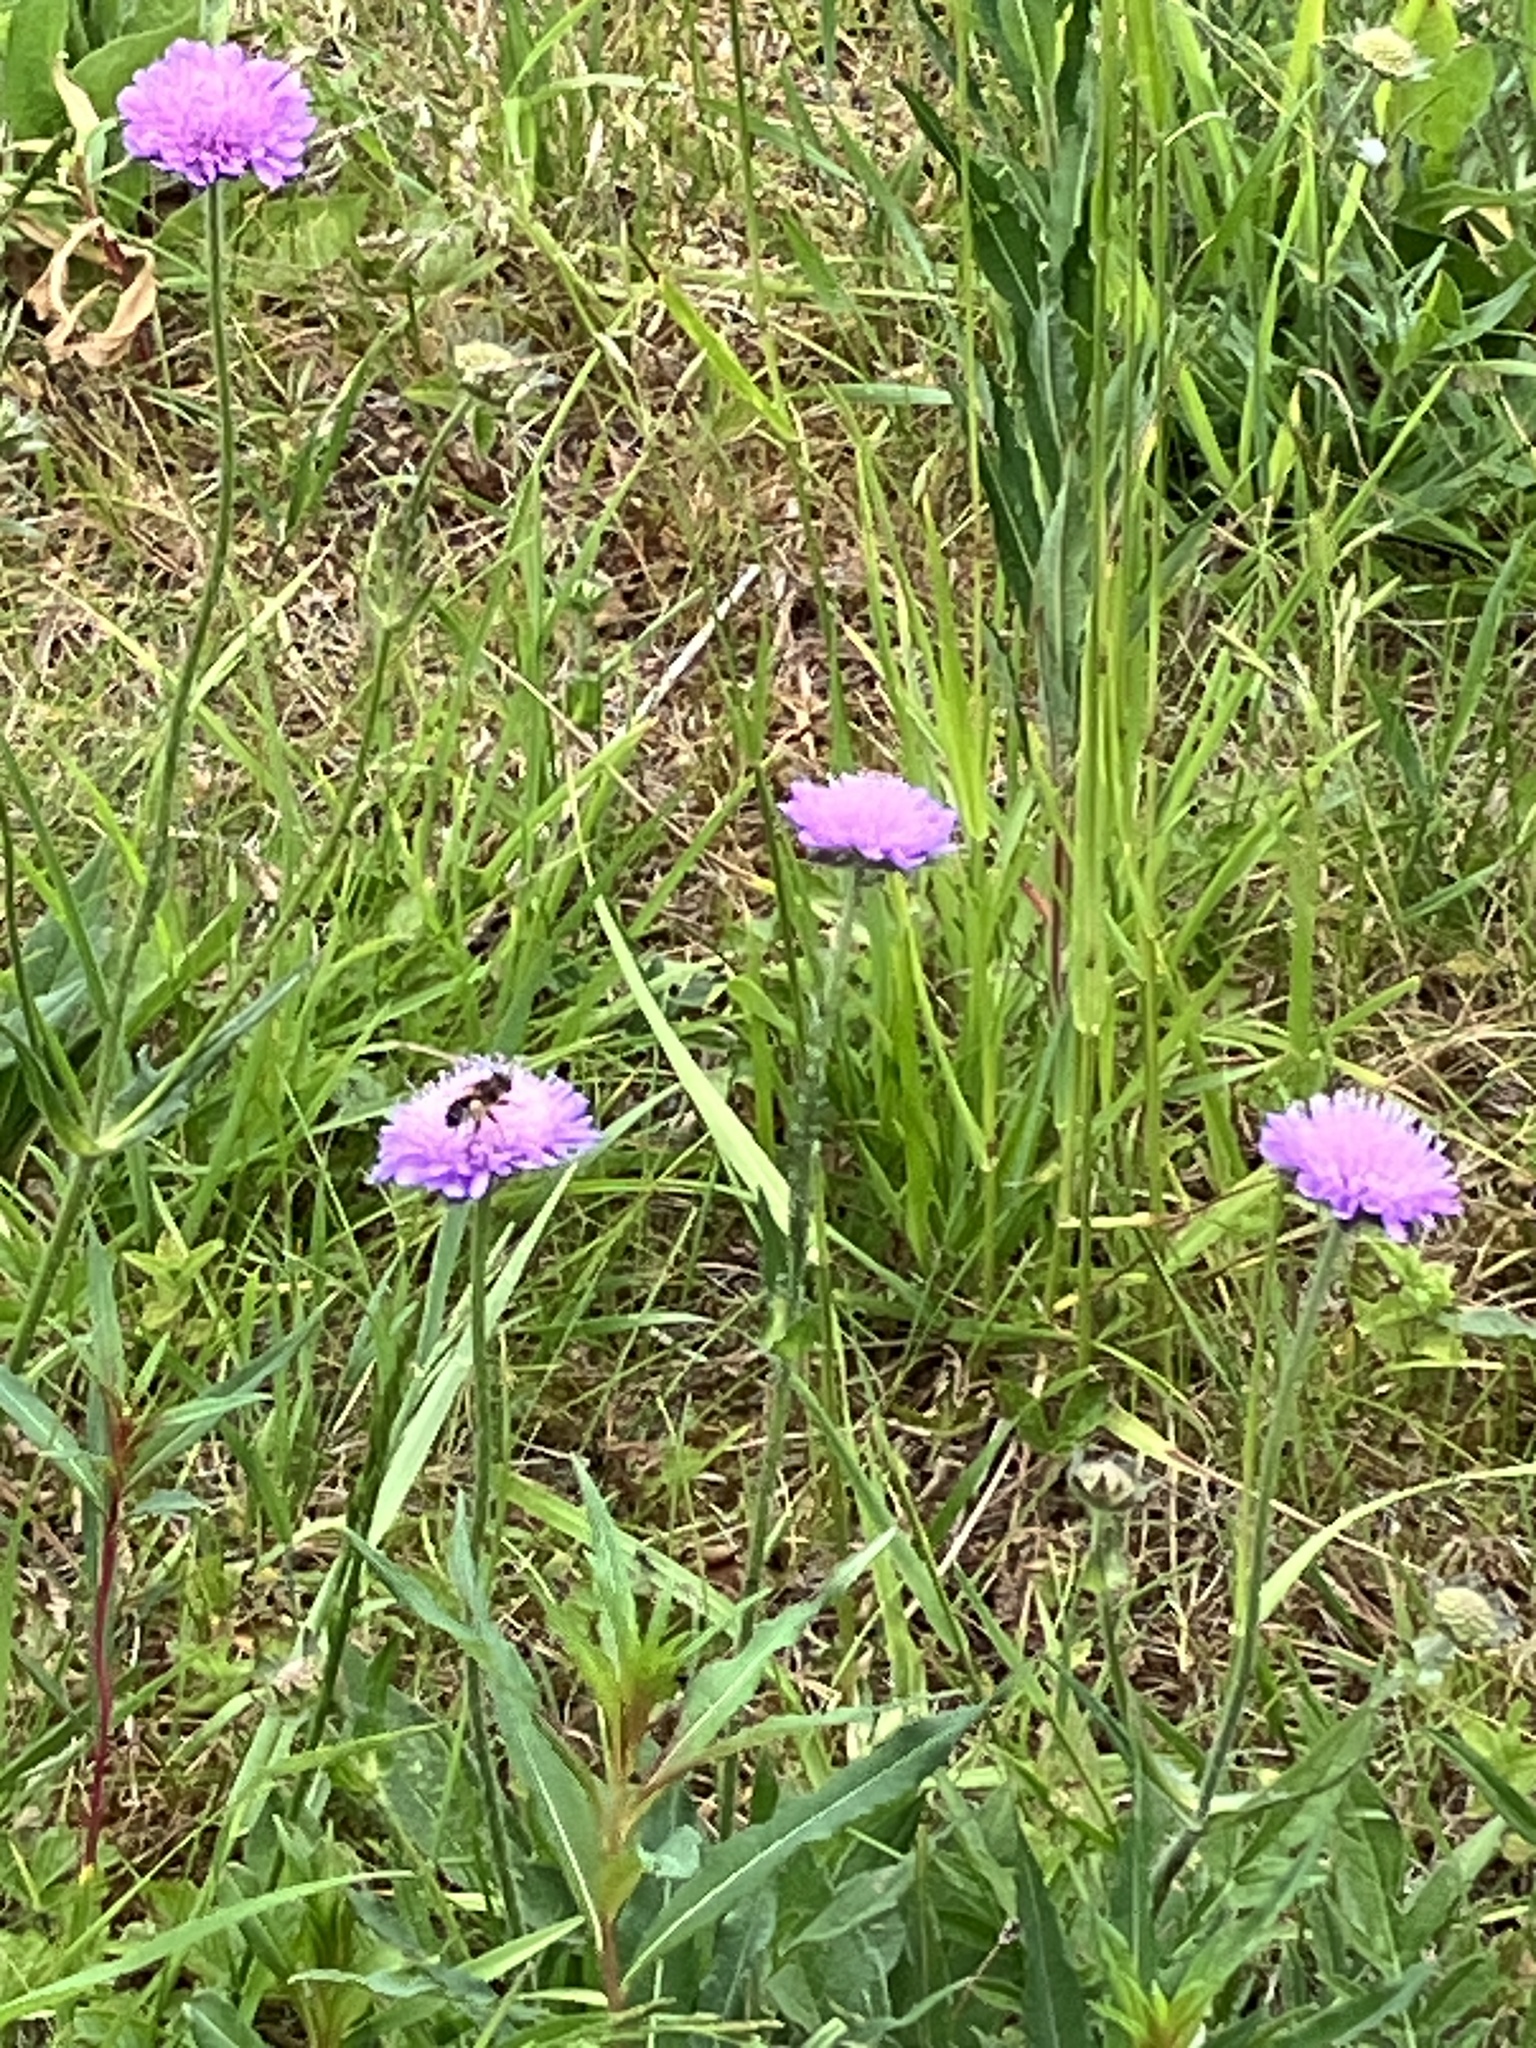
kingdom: Plantae
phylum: Tracheophyta
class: Magnoliopsida
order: Dipsacales
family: Caprifoliaceae
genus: Knautia
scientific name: Knautia arvensis
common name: Field scabiosa
